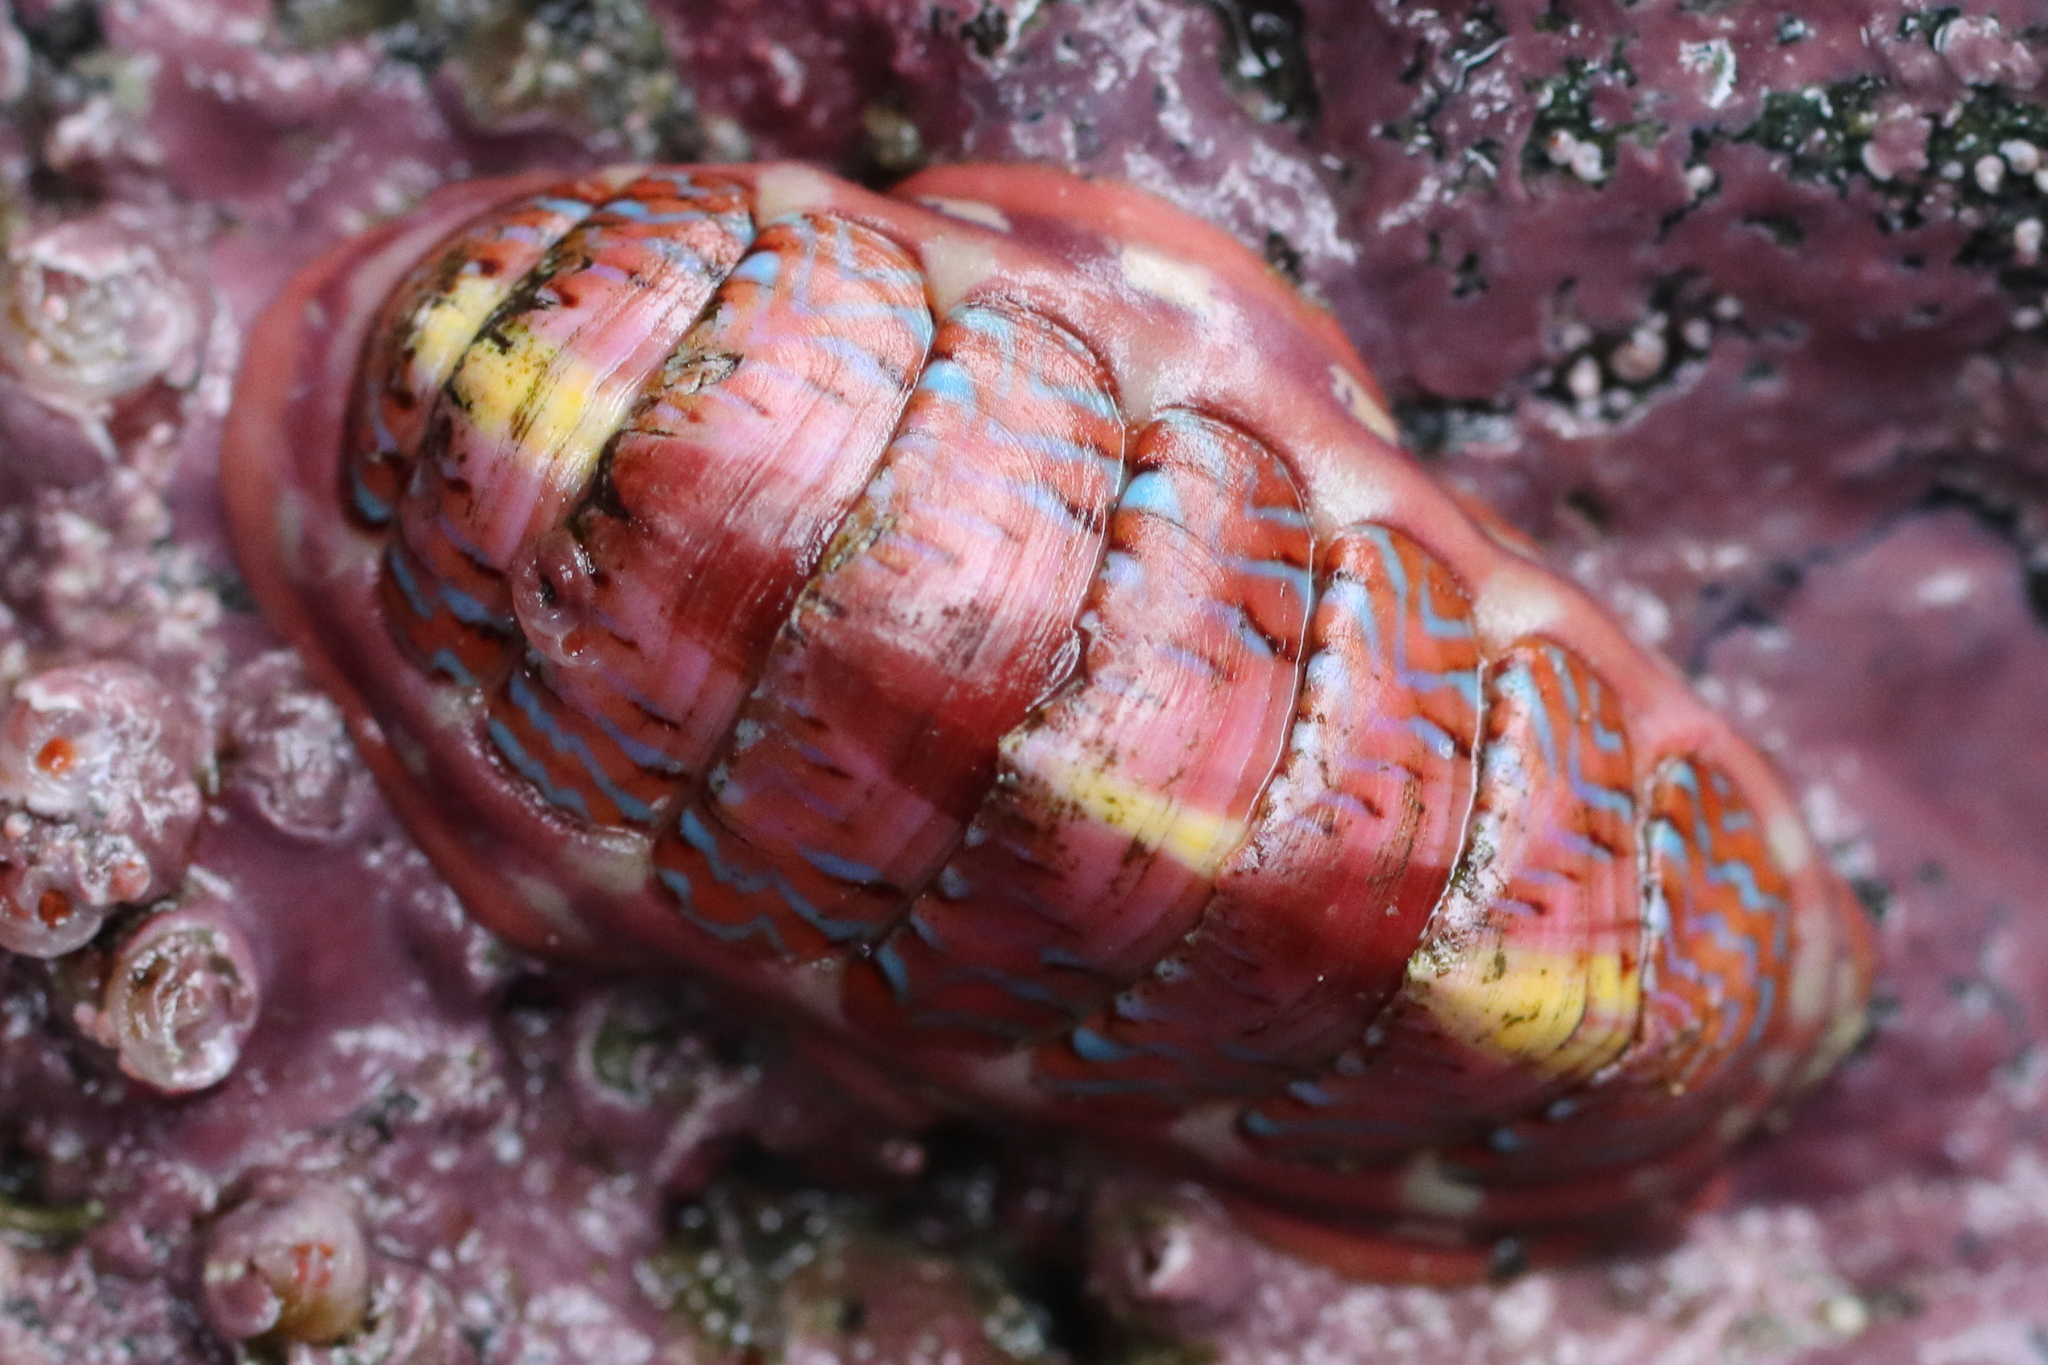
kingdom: Animalia
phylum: Mollusca
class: Polyplacophora
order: Chitonida
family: Tonicellidae
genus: Tonicella
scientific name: Tonicella undocaerulea
